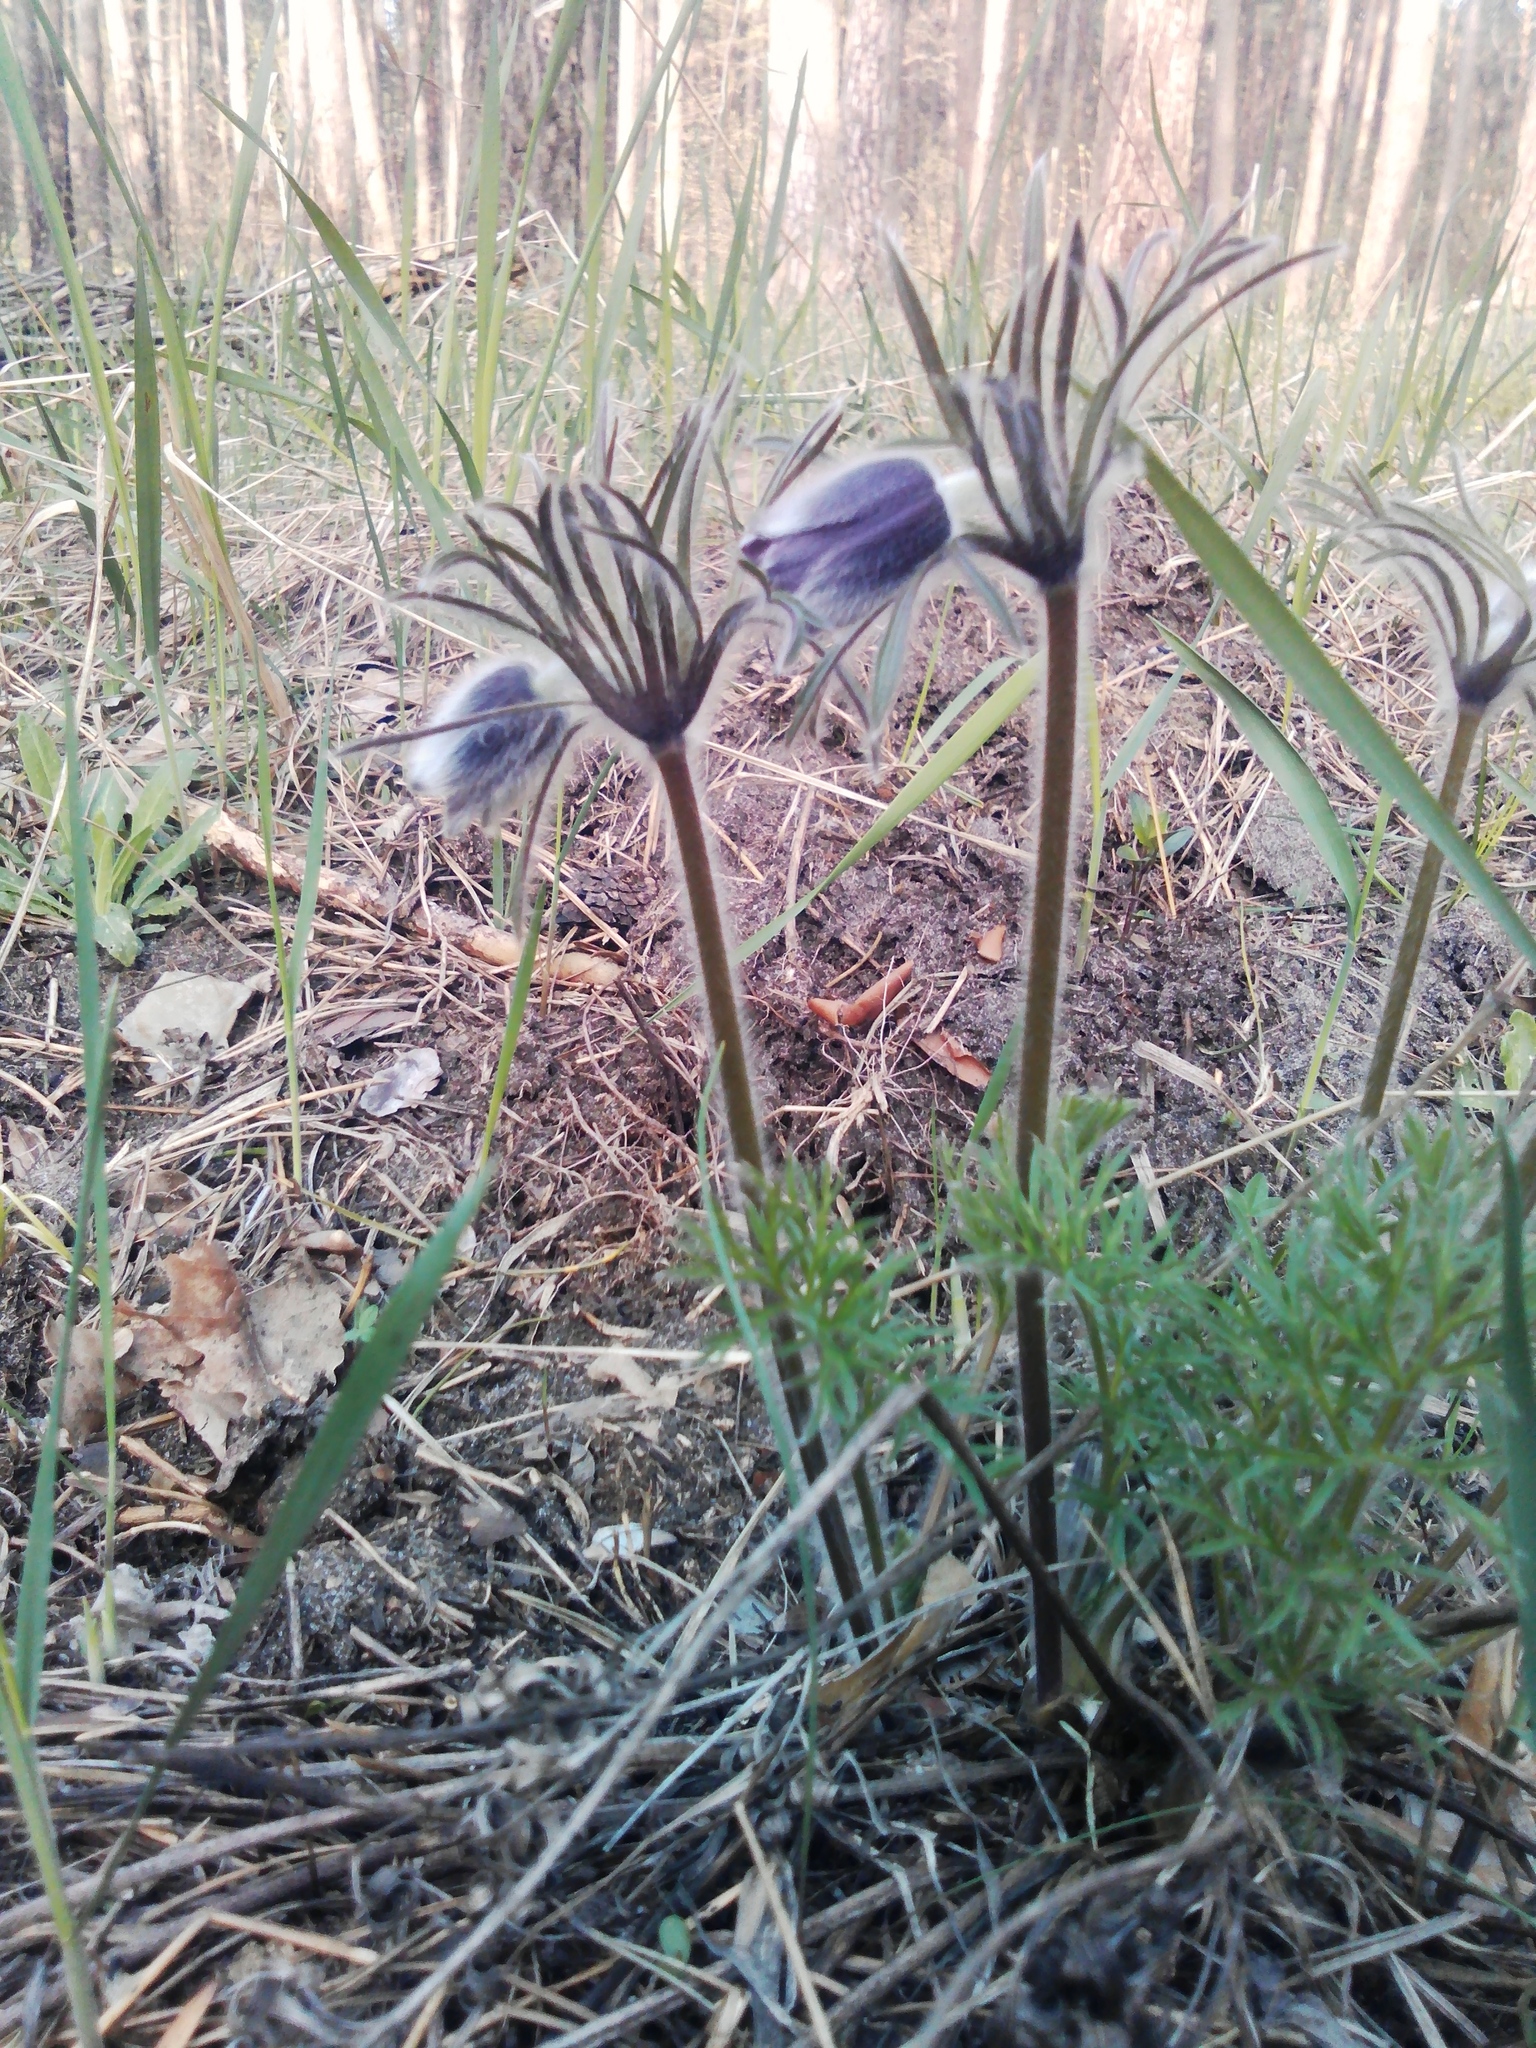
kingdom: Plantae
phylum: Tracheophyta
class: Magnoliopsida
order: Ranunculales
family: Ranunculaceae
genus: Pulsatilla
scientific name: Pulsatilla pratensis
